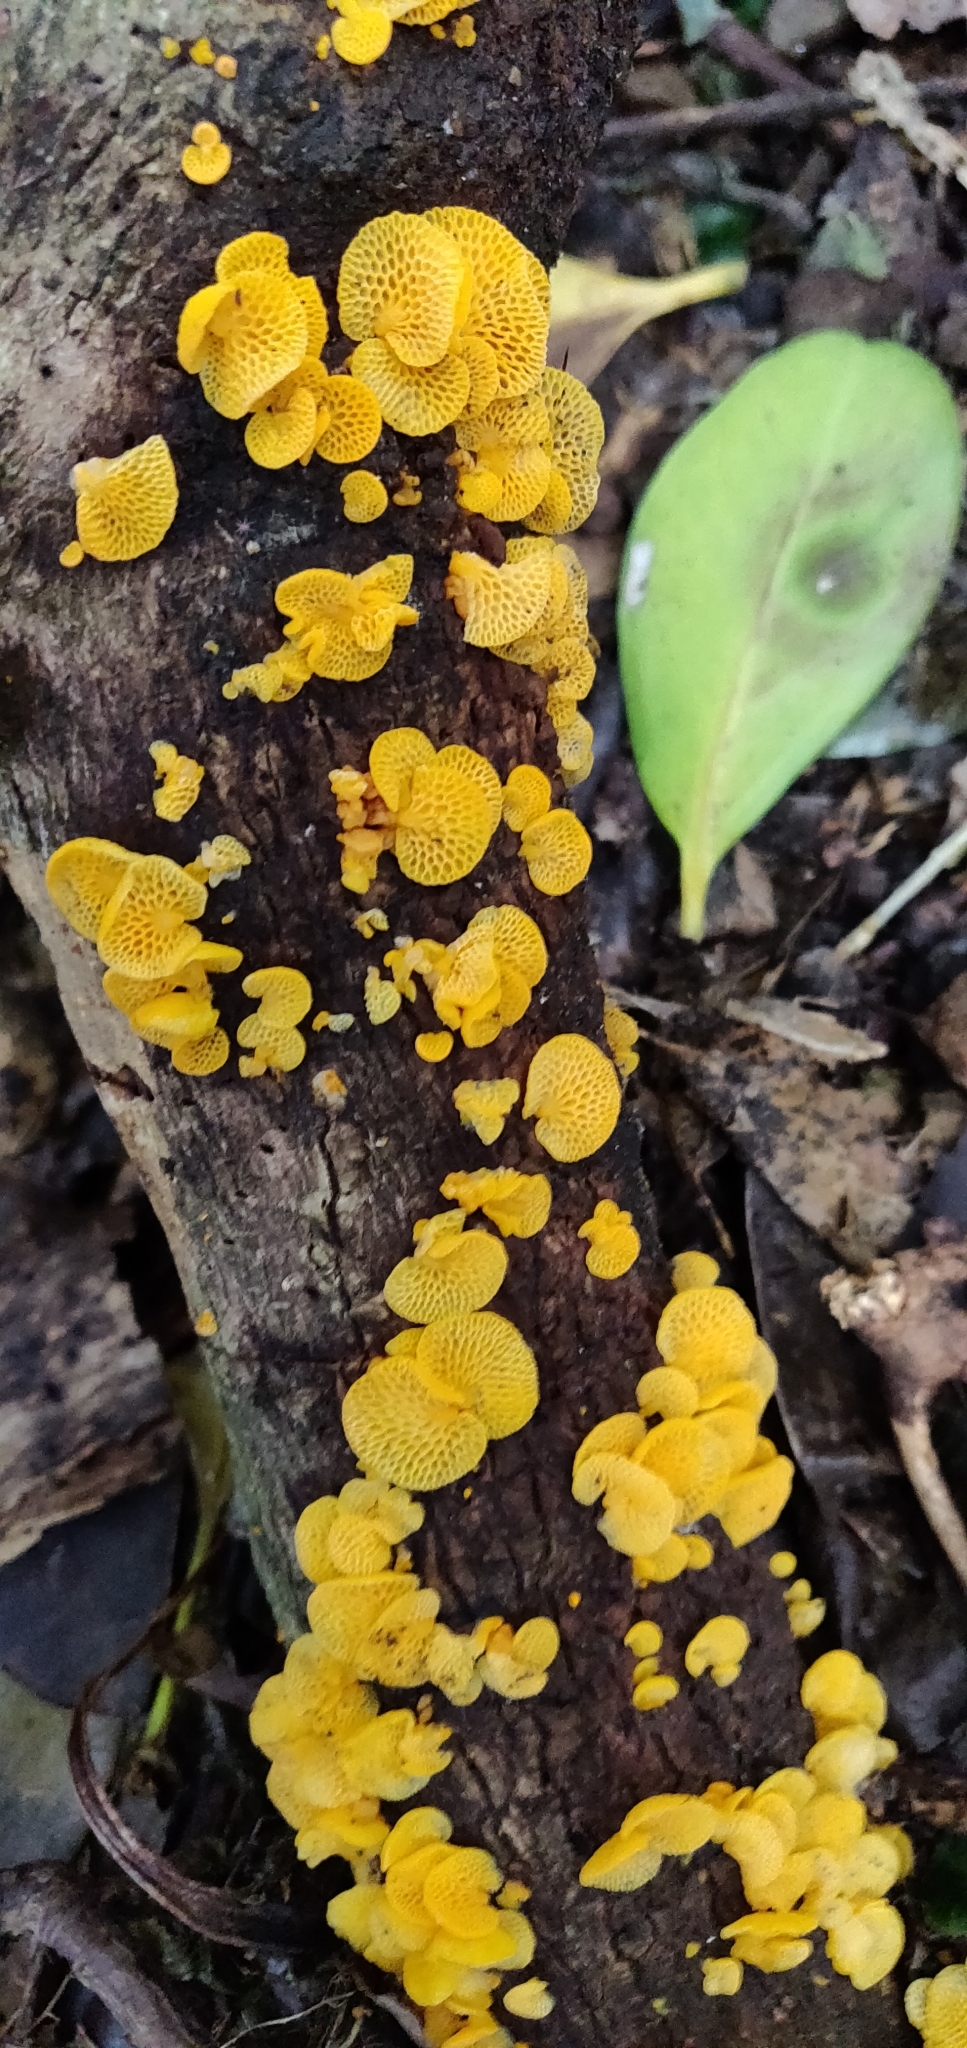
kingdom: Fungi
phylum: Basidiomycota
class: Agaricomycetes
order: Agaricales
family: Mycenaceae
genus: Favolaschia
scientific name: Favolaschia claudopus
